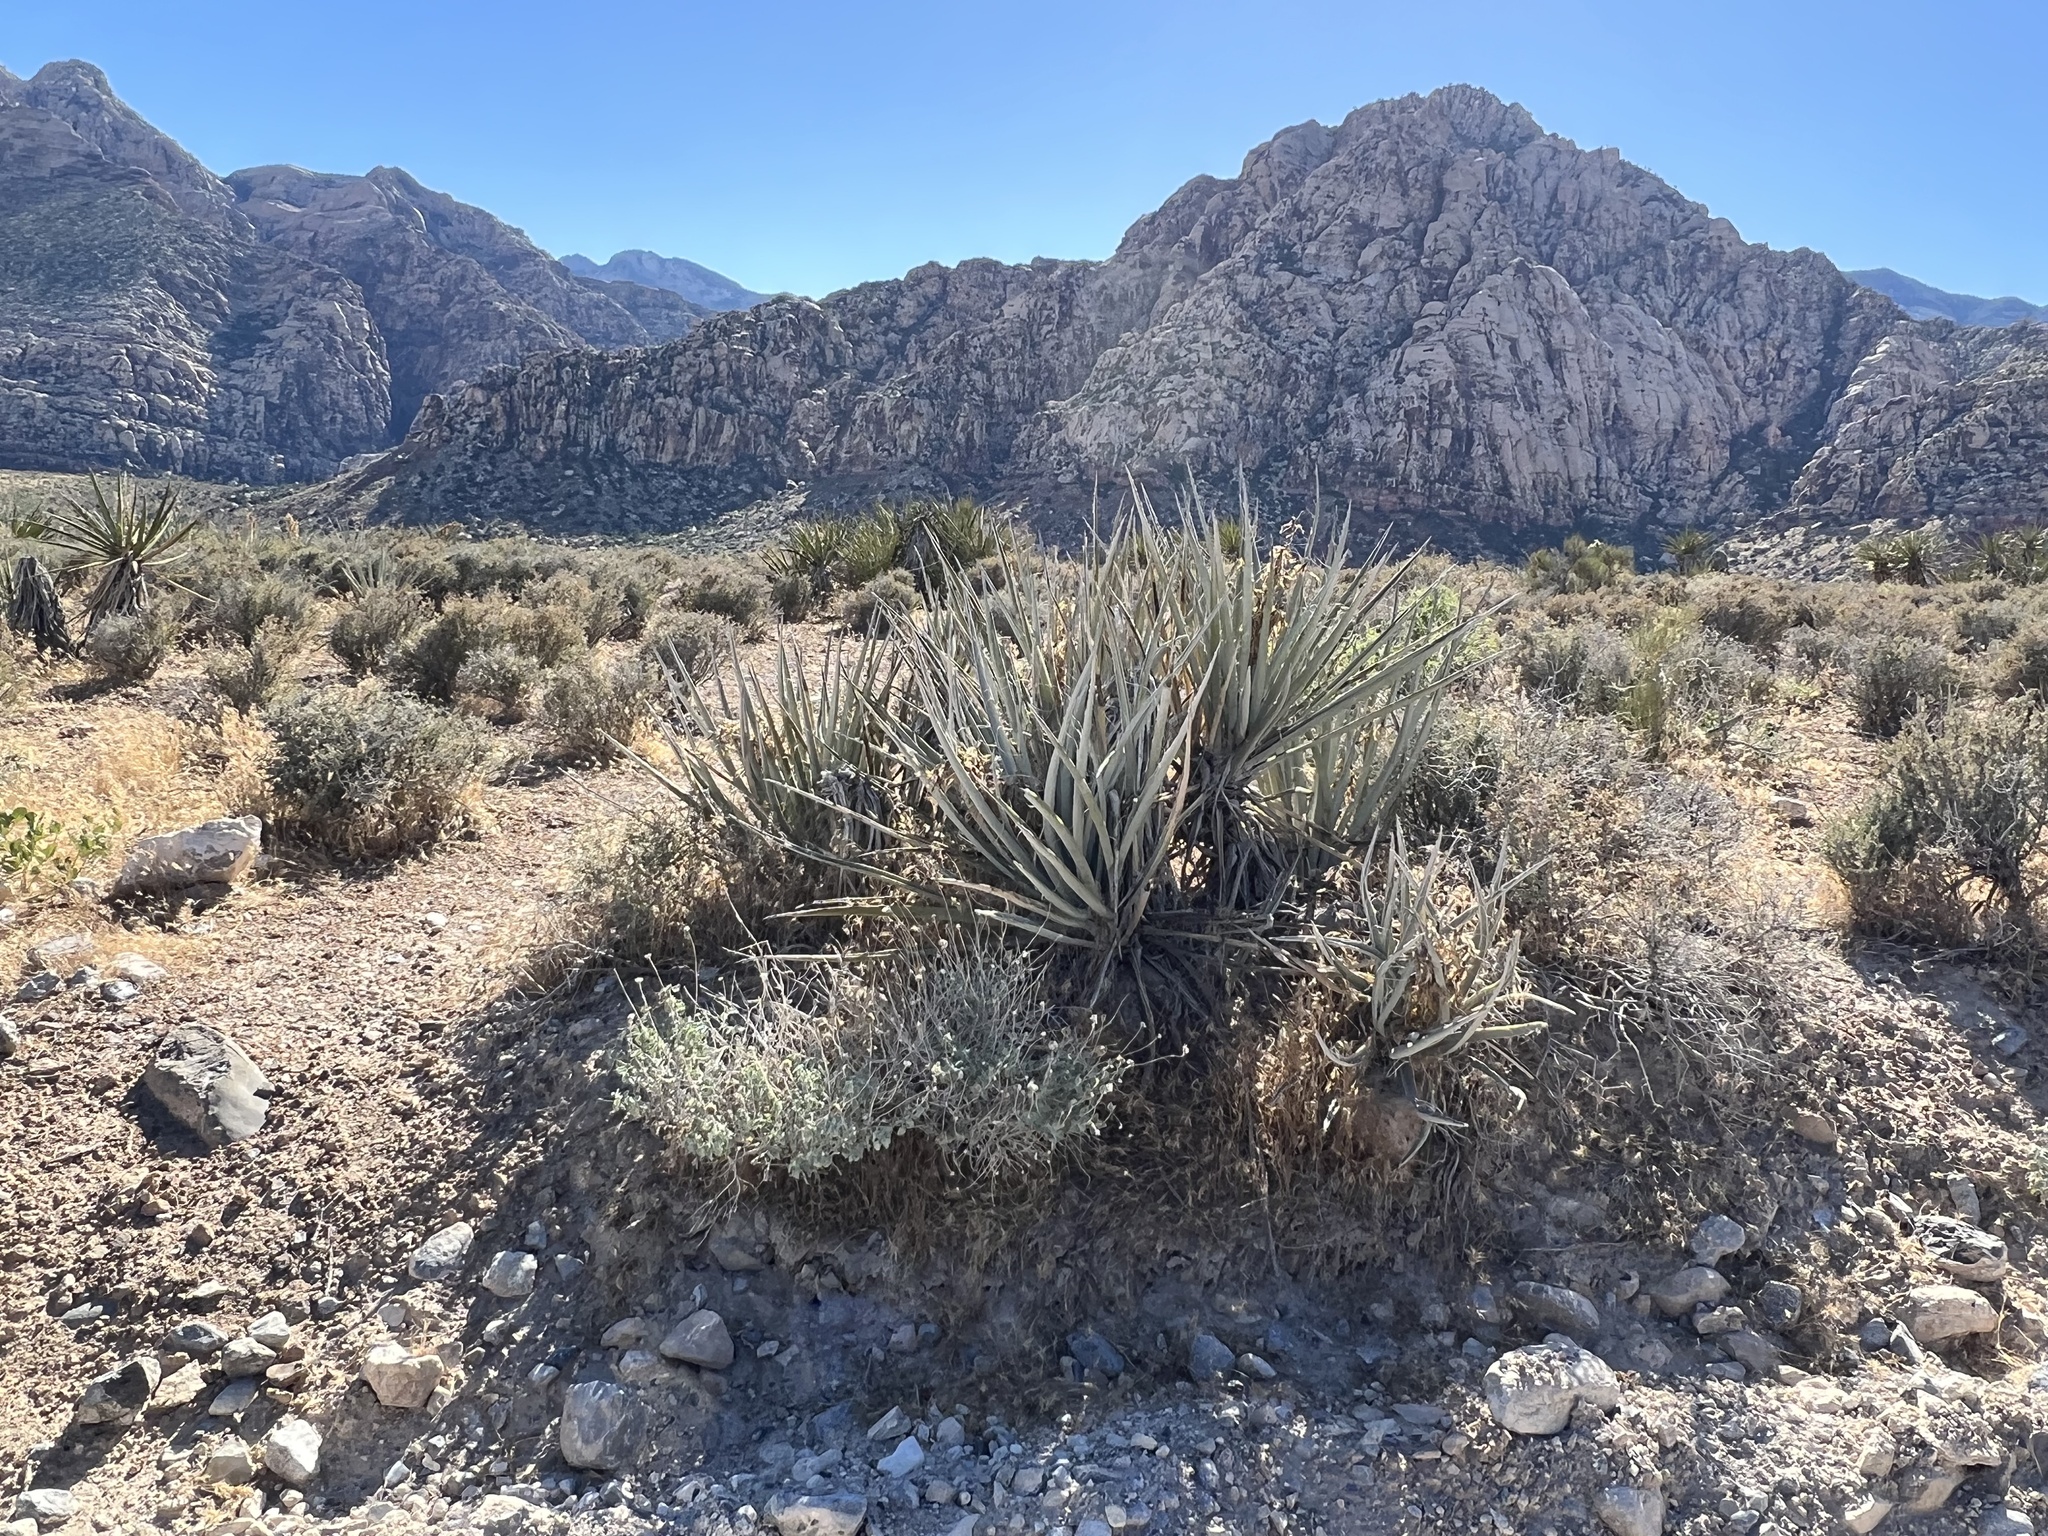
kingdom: Plantae
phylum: Tracheophyta
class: Liliopsida
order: Asparagales
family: Asparagaceae
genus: Yucca
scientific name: Yucca baccata
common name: Banana yucca
